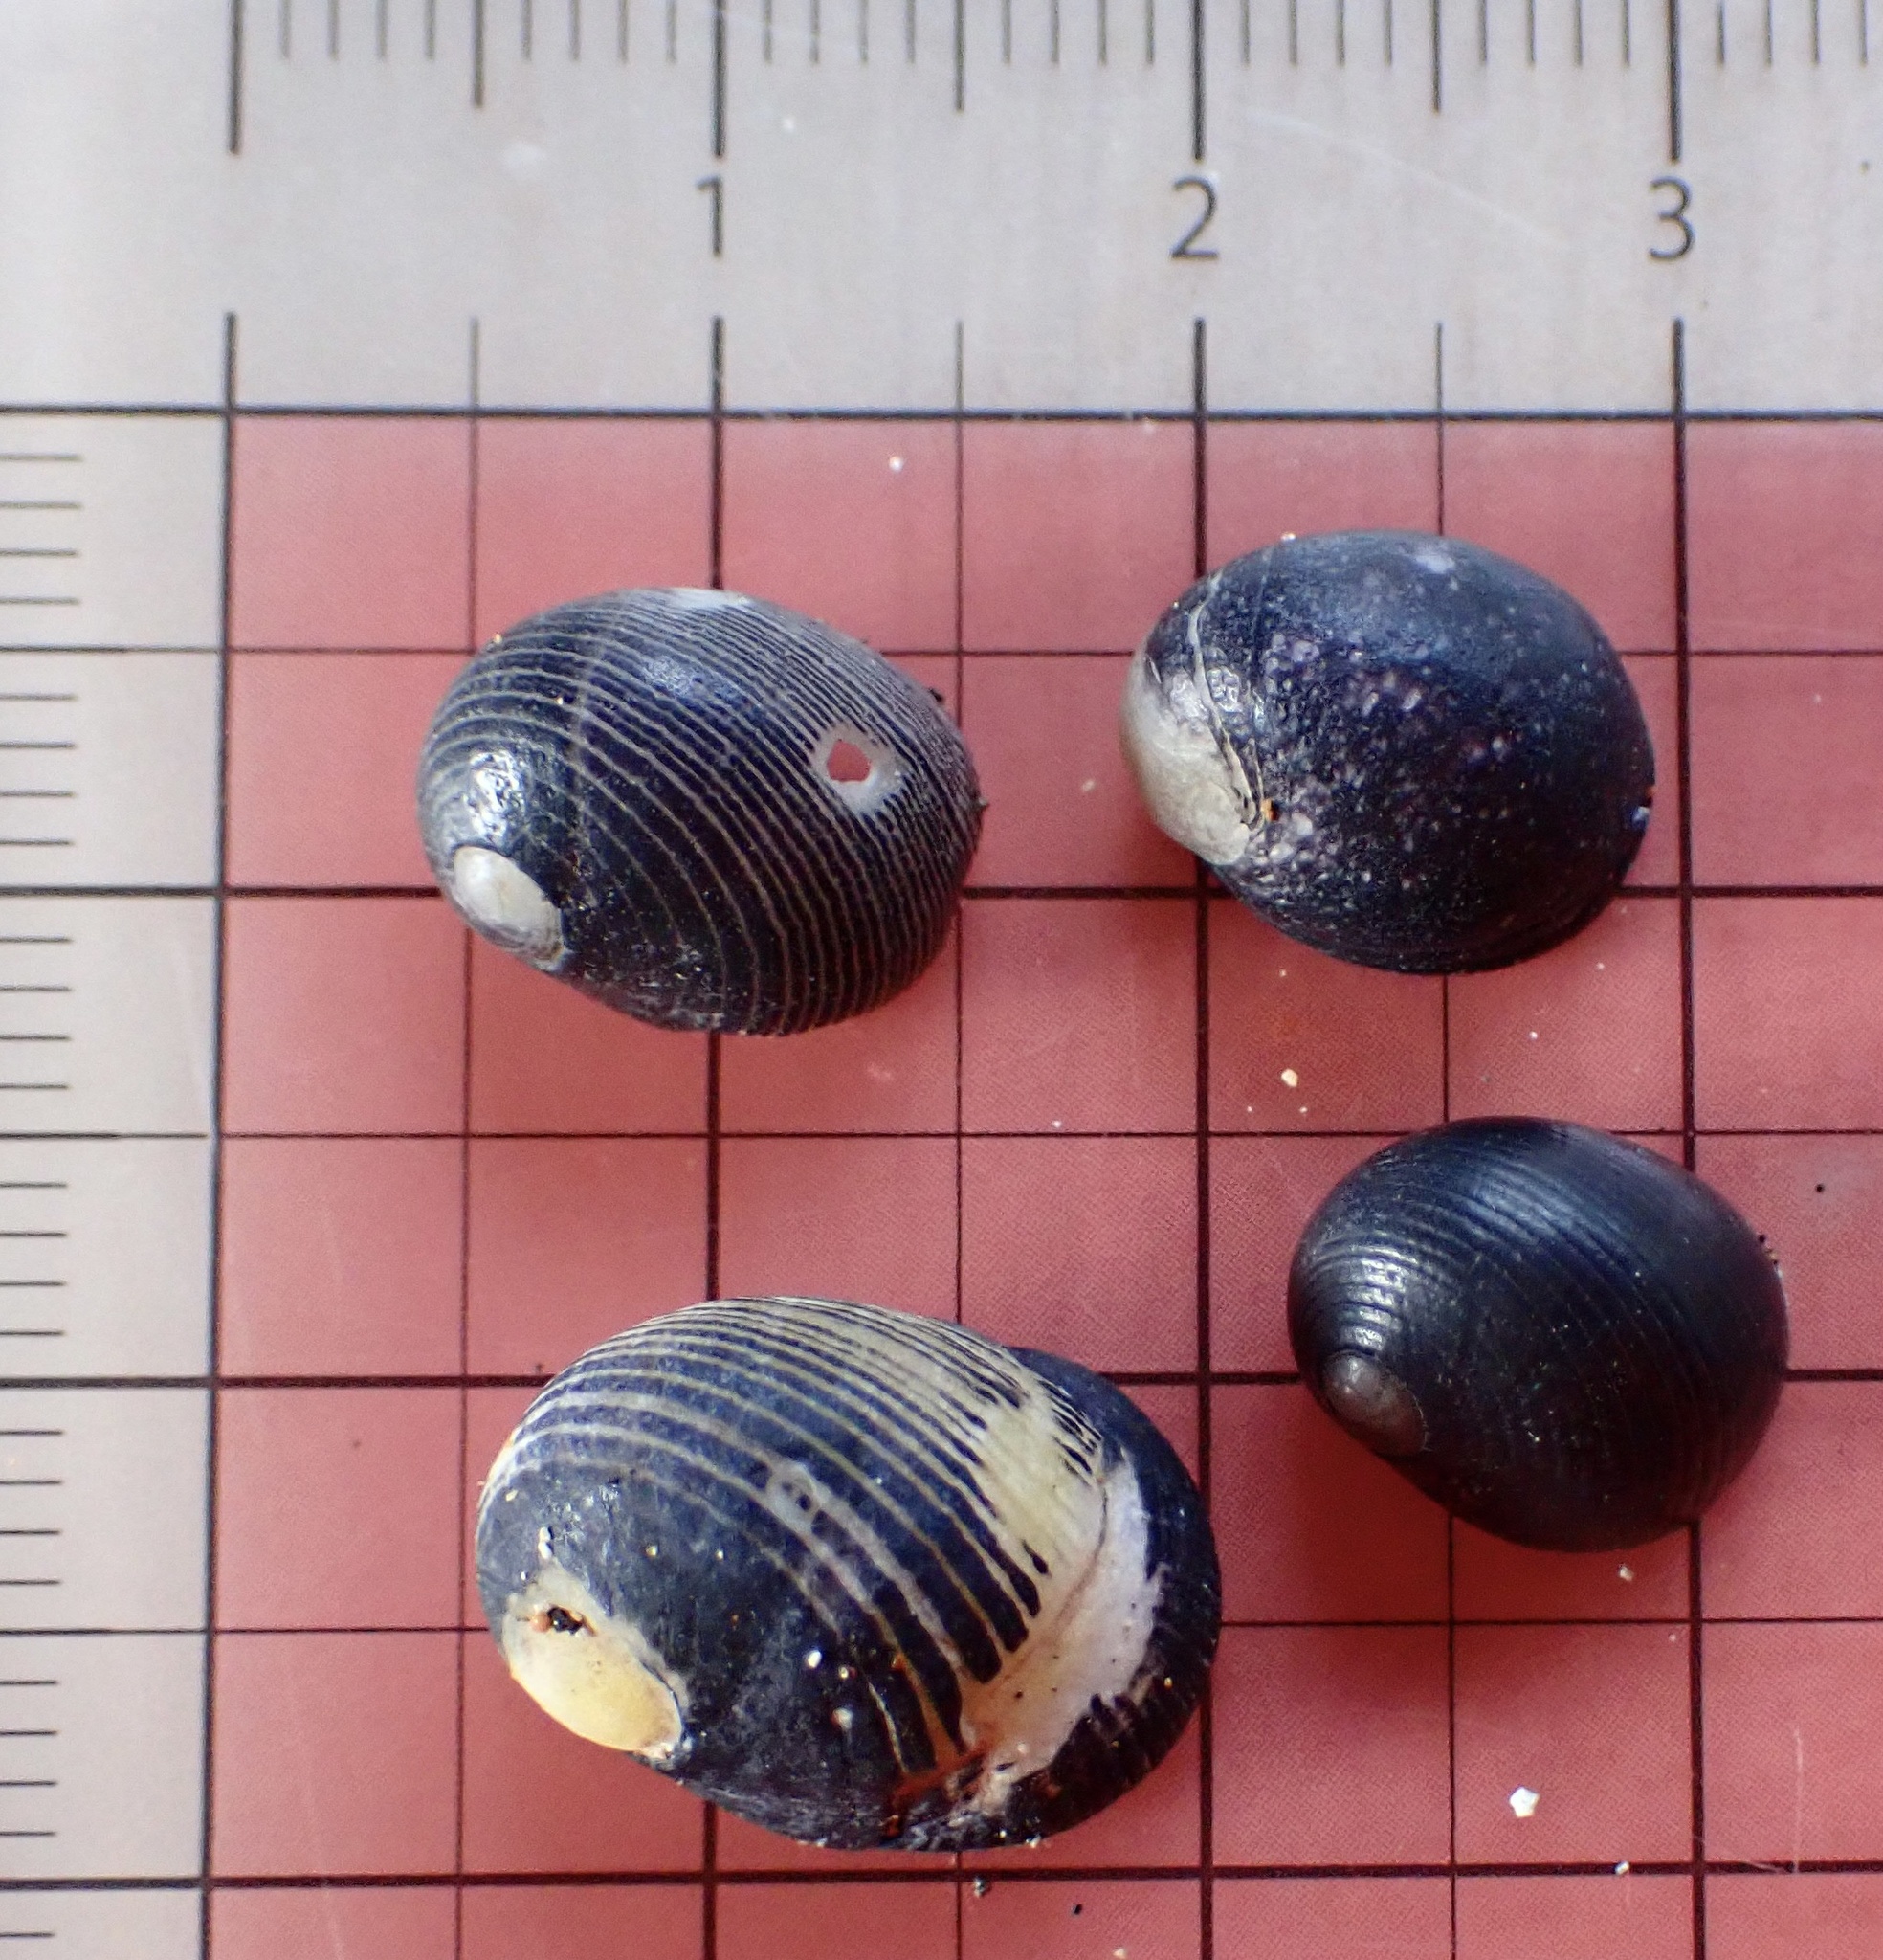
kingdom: Animalia
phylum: Mollusca
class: Gastropoda
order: Cycloneritida
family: Neritidae
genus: Nerita
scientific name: Nerita picea
